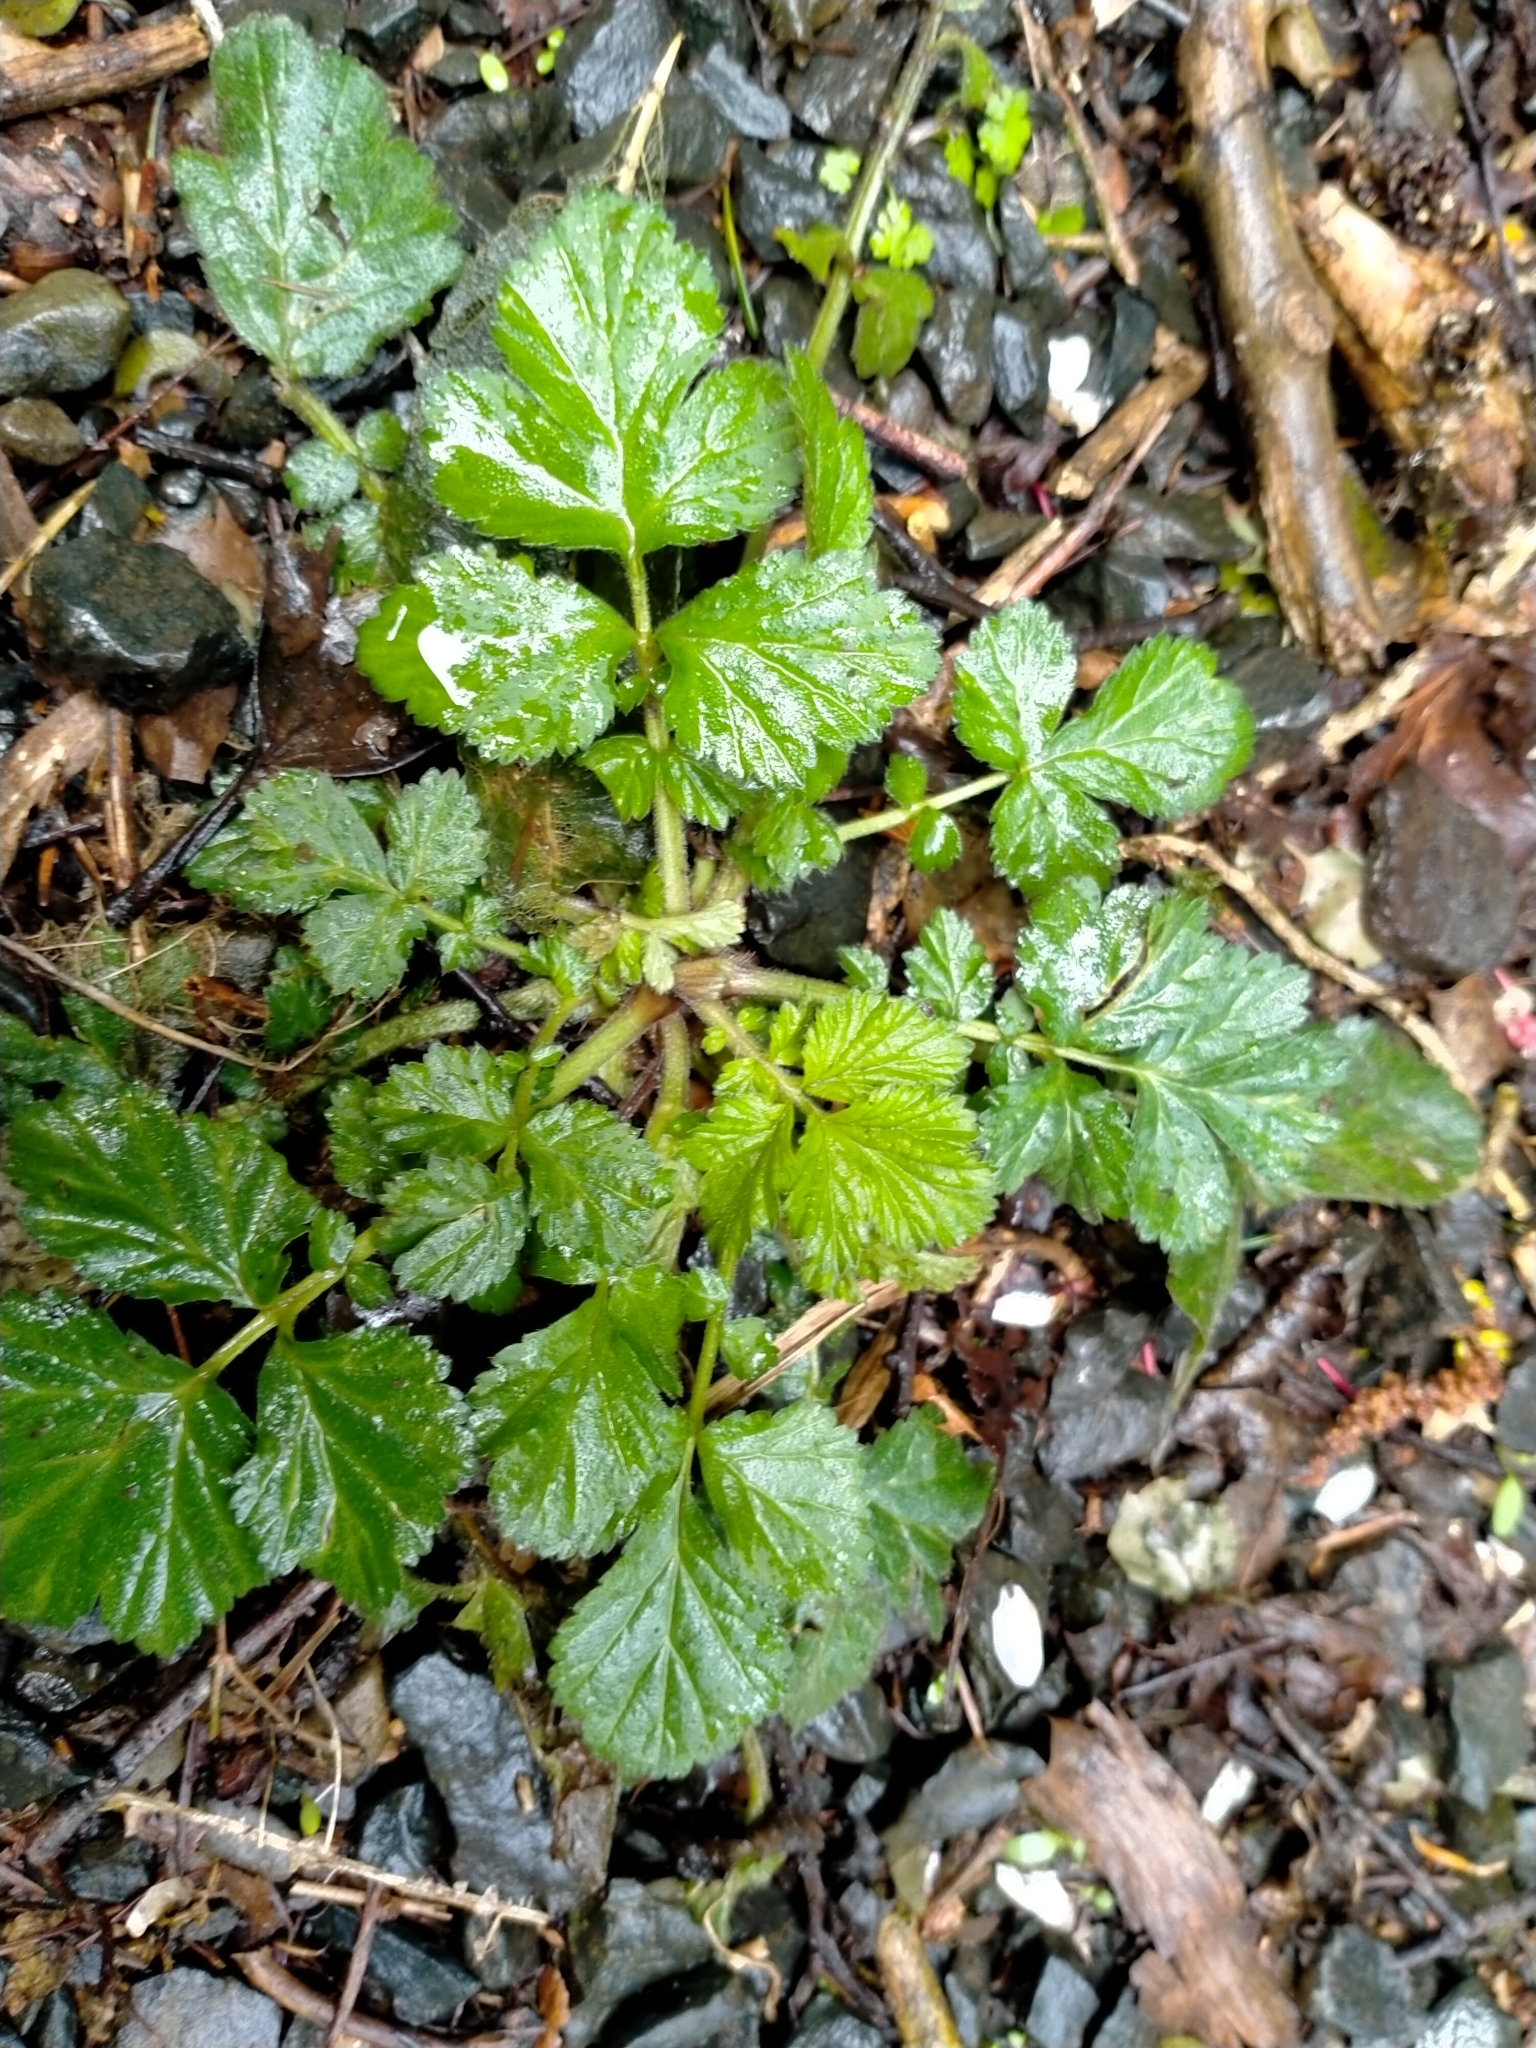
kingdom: Plantae
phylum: Tracheophyta
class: Magnoliopsida
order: Rosales
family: Rosaceae
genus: Geum
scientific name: Geum urbanum
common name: Wood avens
